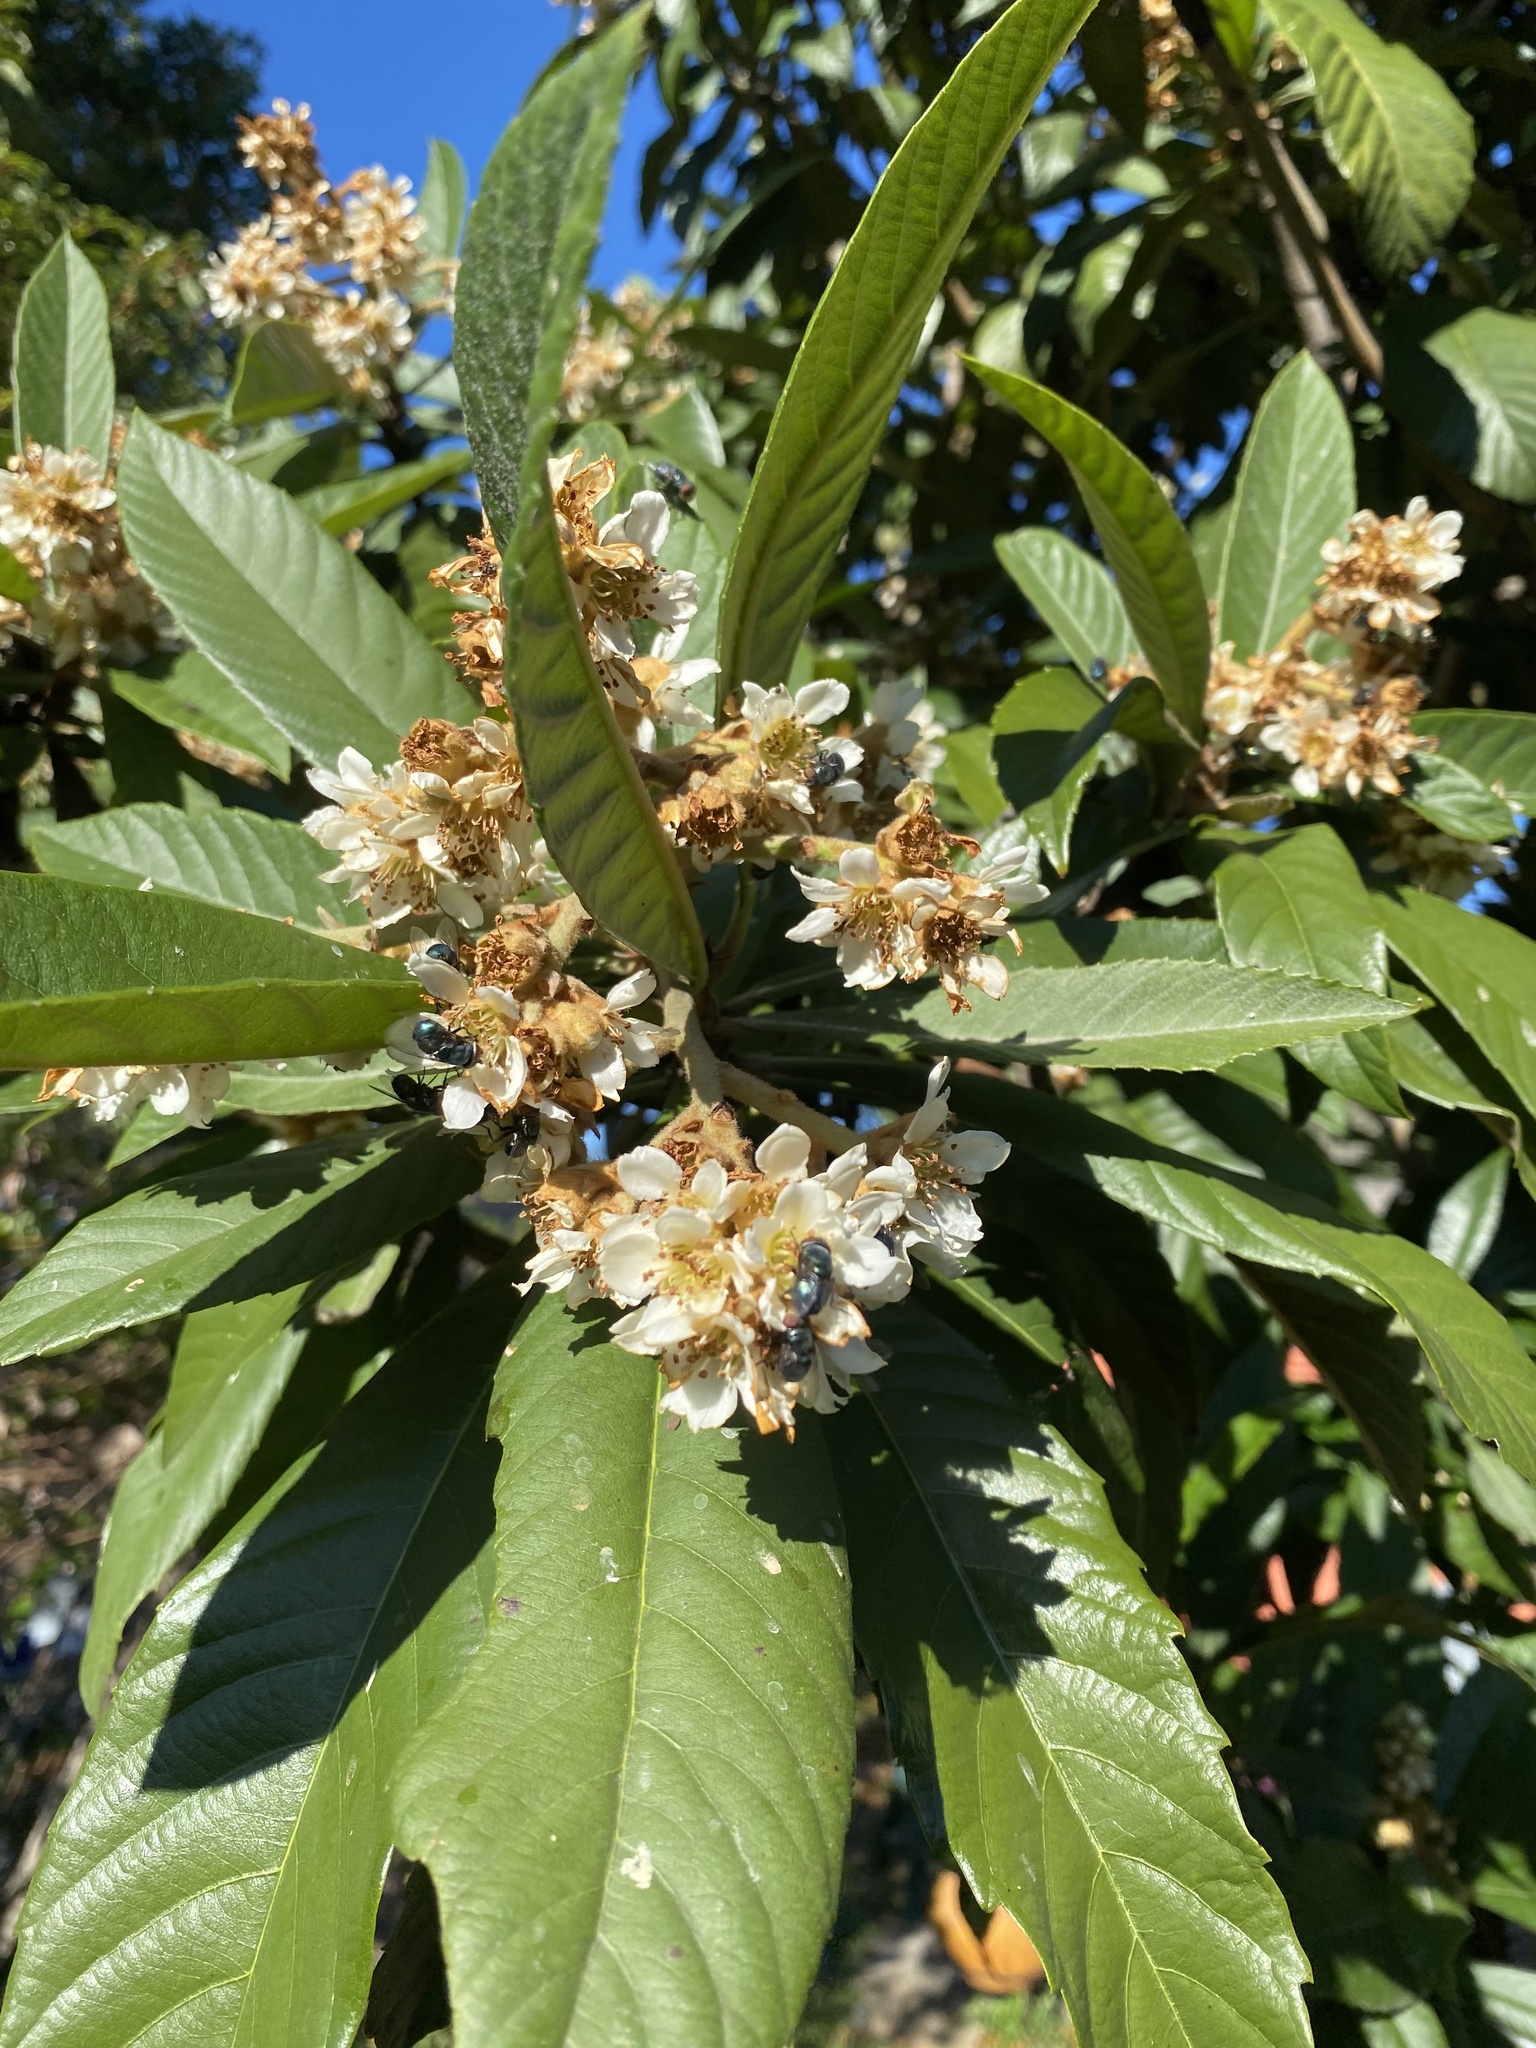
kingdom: Plantae
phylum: Tracheophyta
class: Magnoliopsida
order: Rosales
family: Rosaceae
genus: Rhaphiolepis
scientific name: Rhaphiolepis bibas
